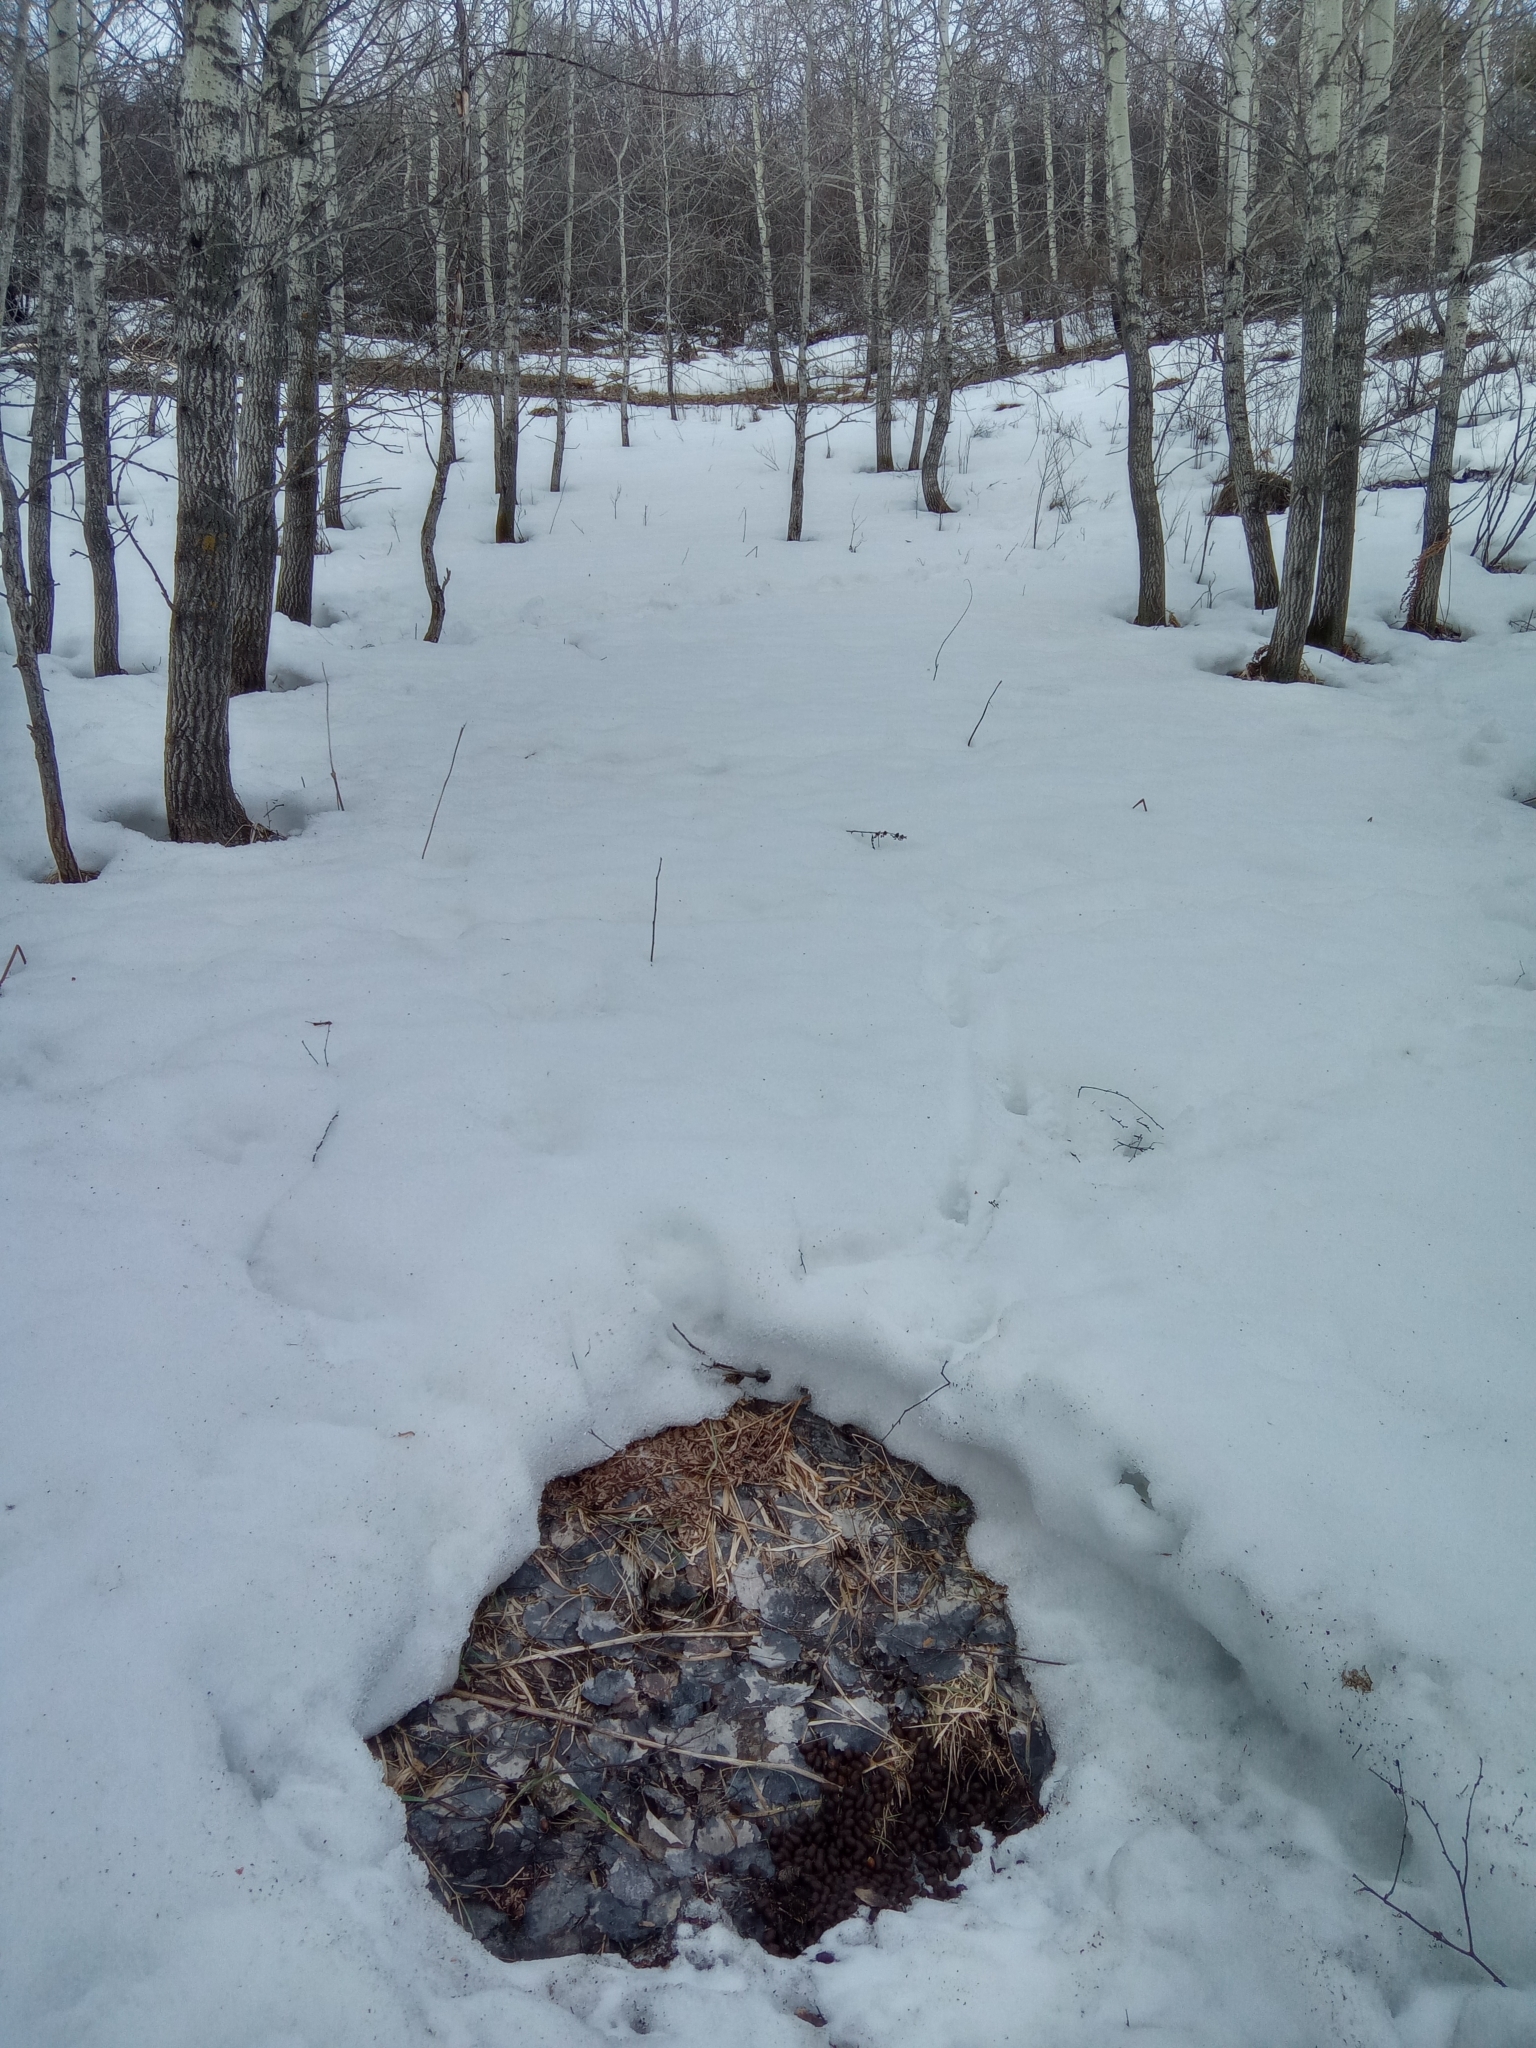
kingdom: Animalia
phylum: Chordata
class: Mammalia
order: Artiodactyla
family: Cervidae
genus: Capreolus
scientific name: Capreolus pygargus
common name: Siberian roe
